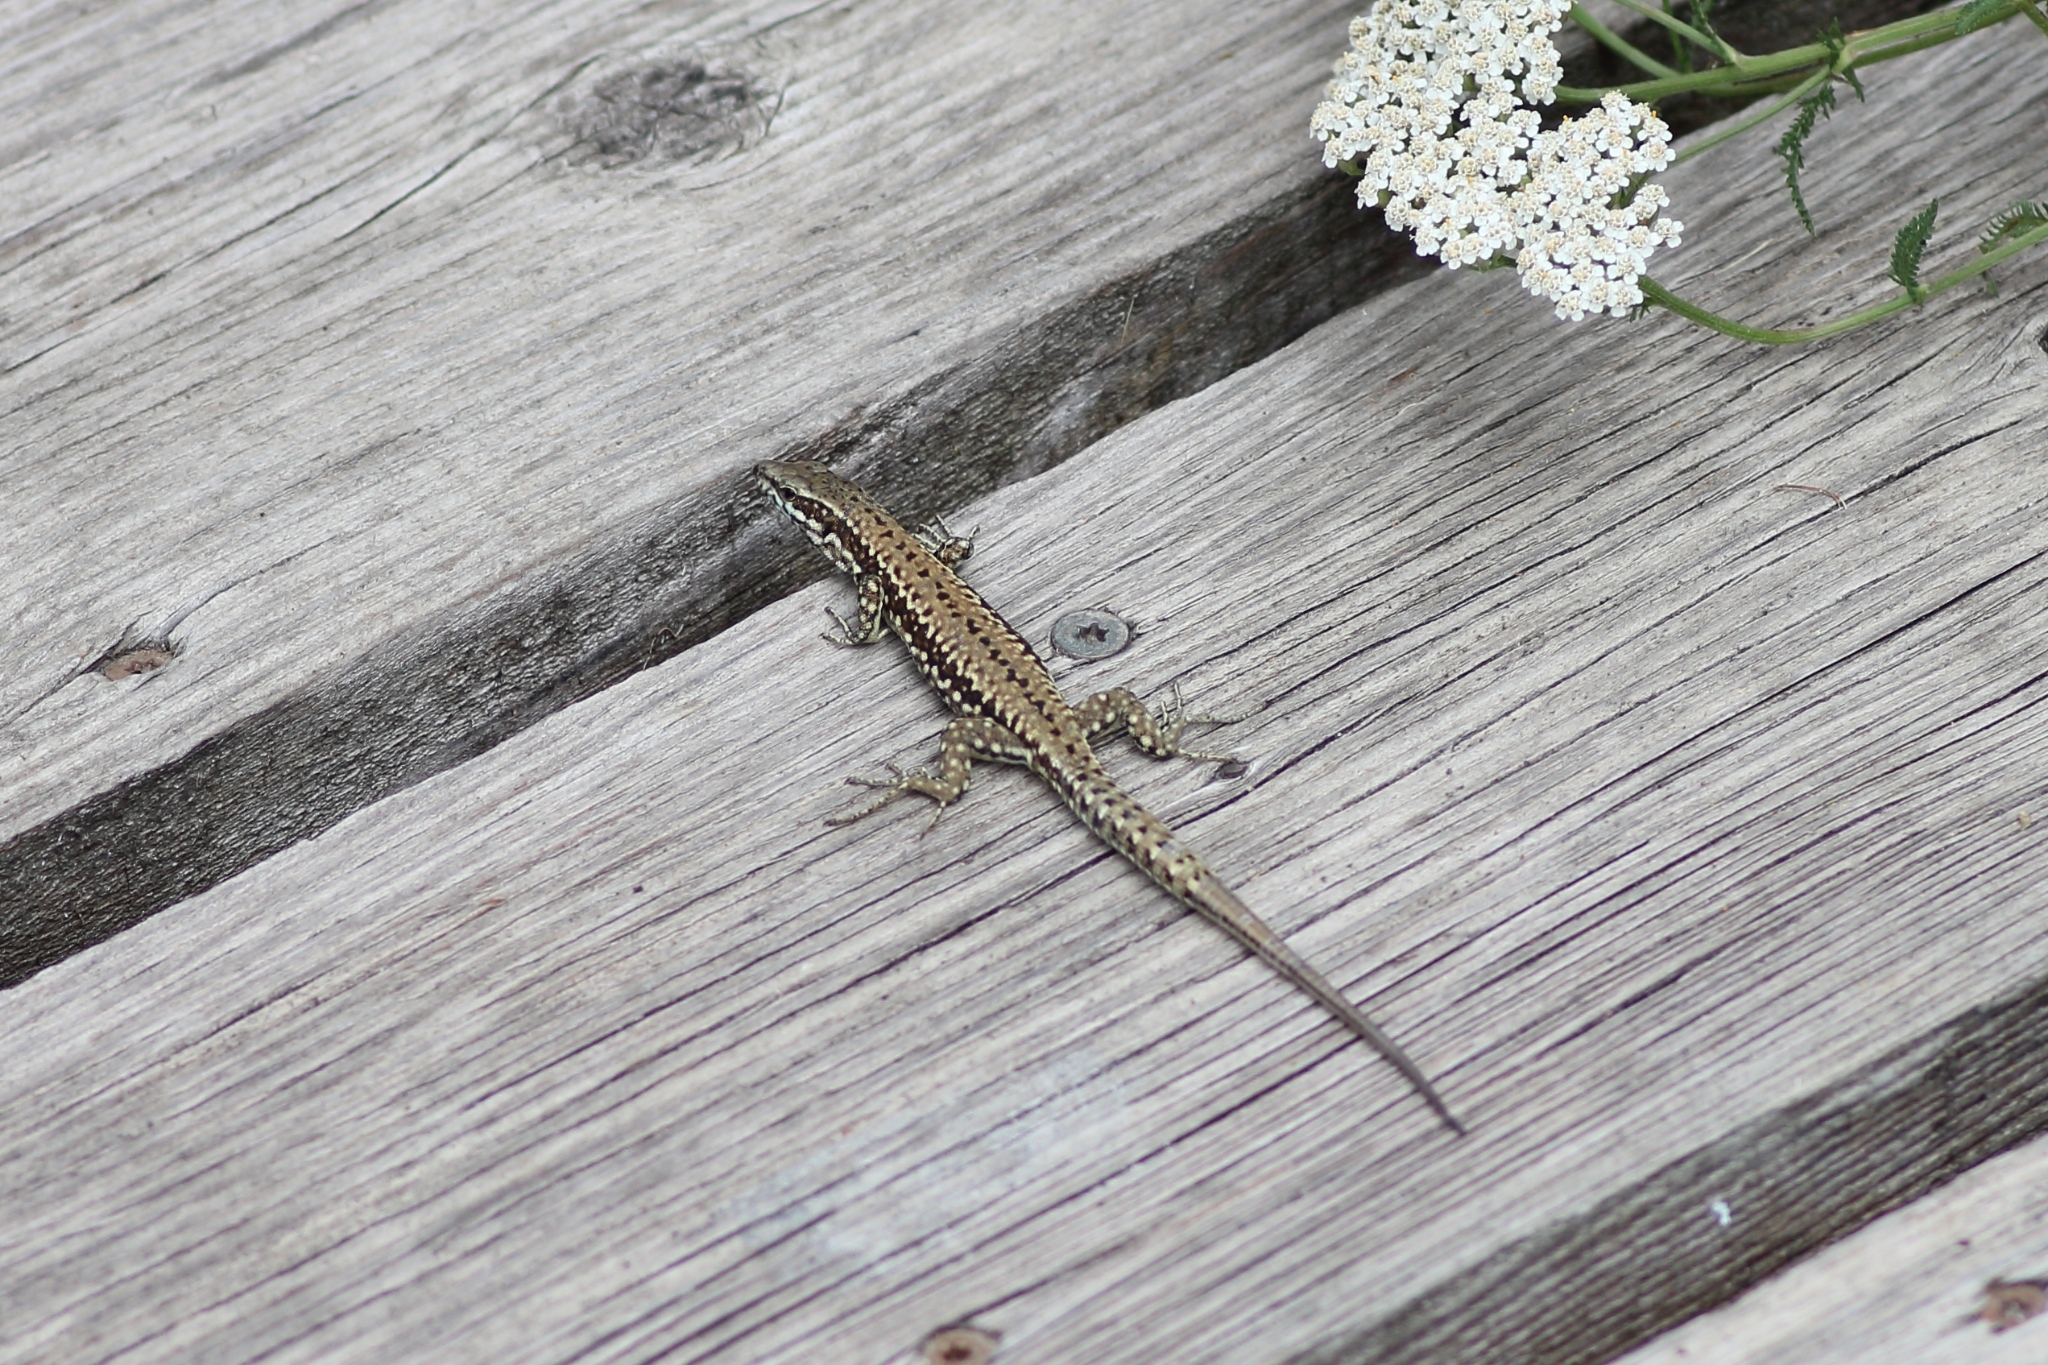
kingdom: Animalia
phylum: Chordata
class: Squamata
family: Lacertidae
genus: Podarcis
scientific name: Podarcis muralis
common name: Common wall lizard
